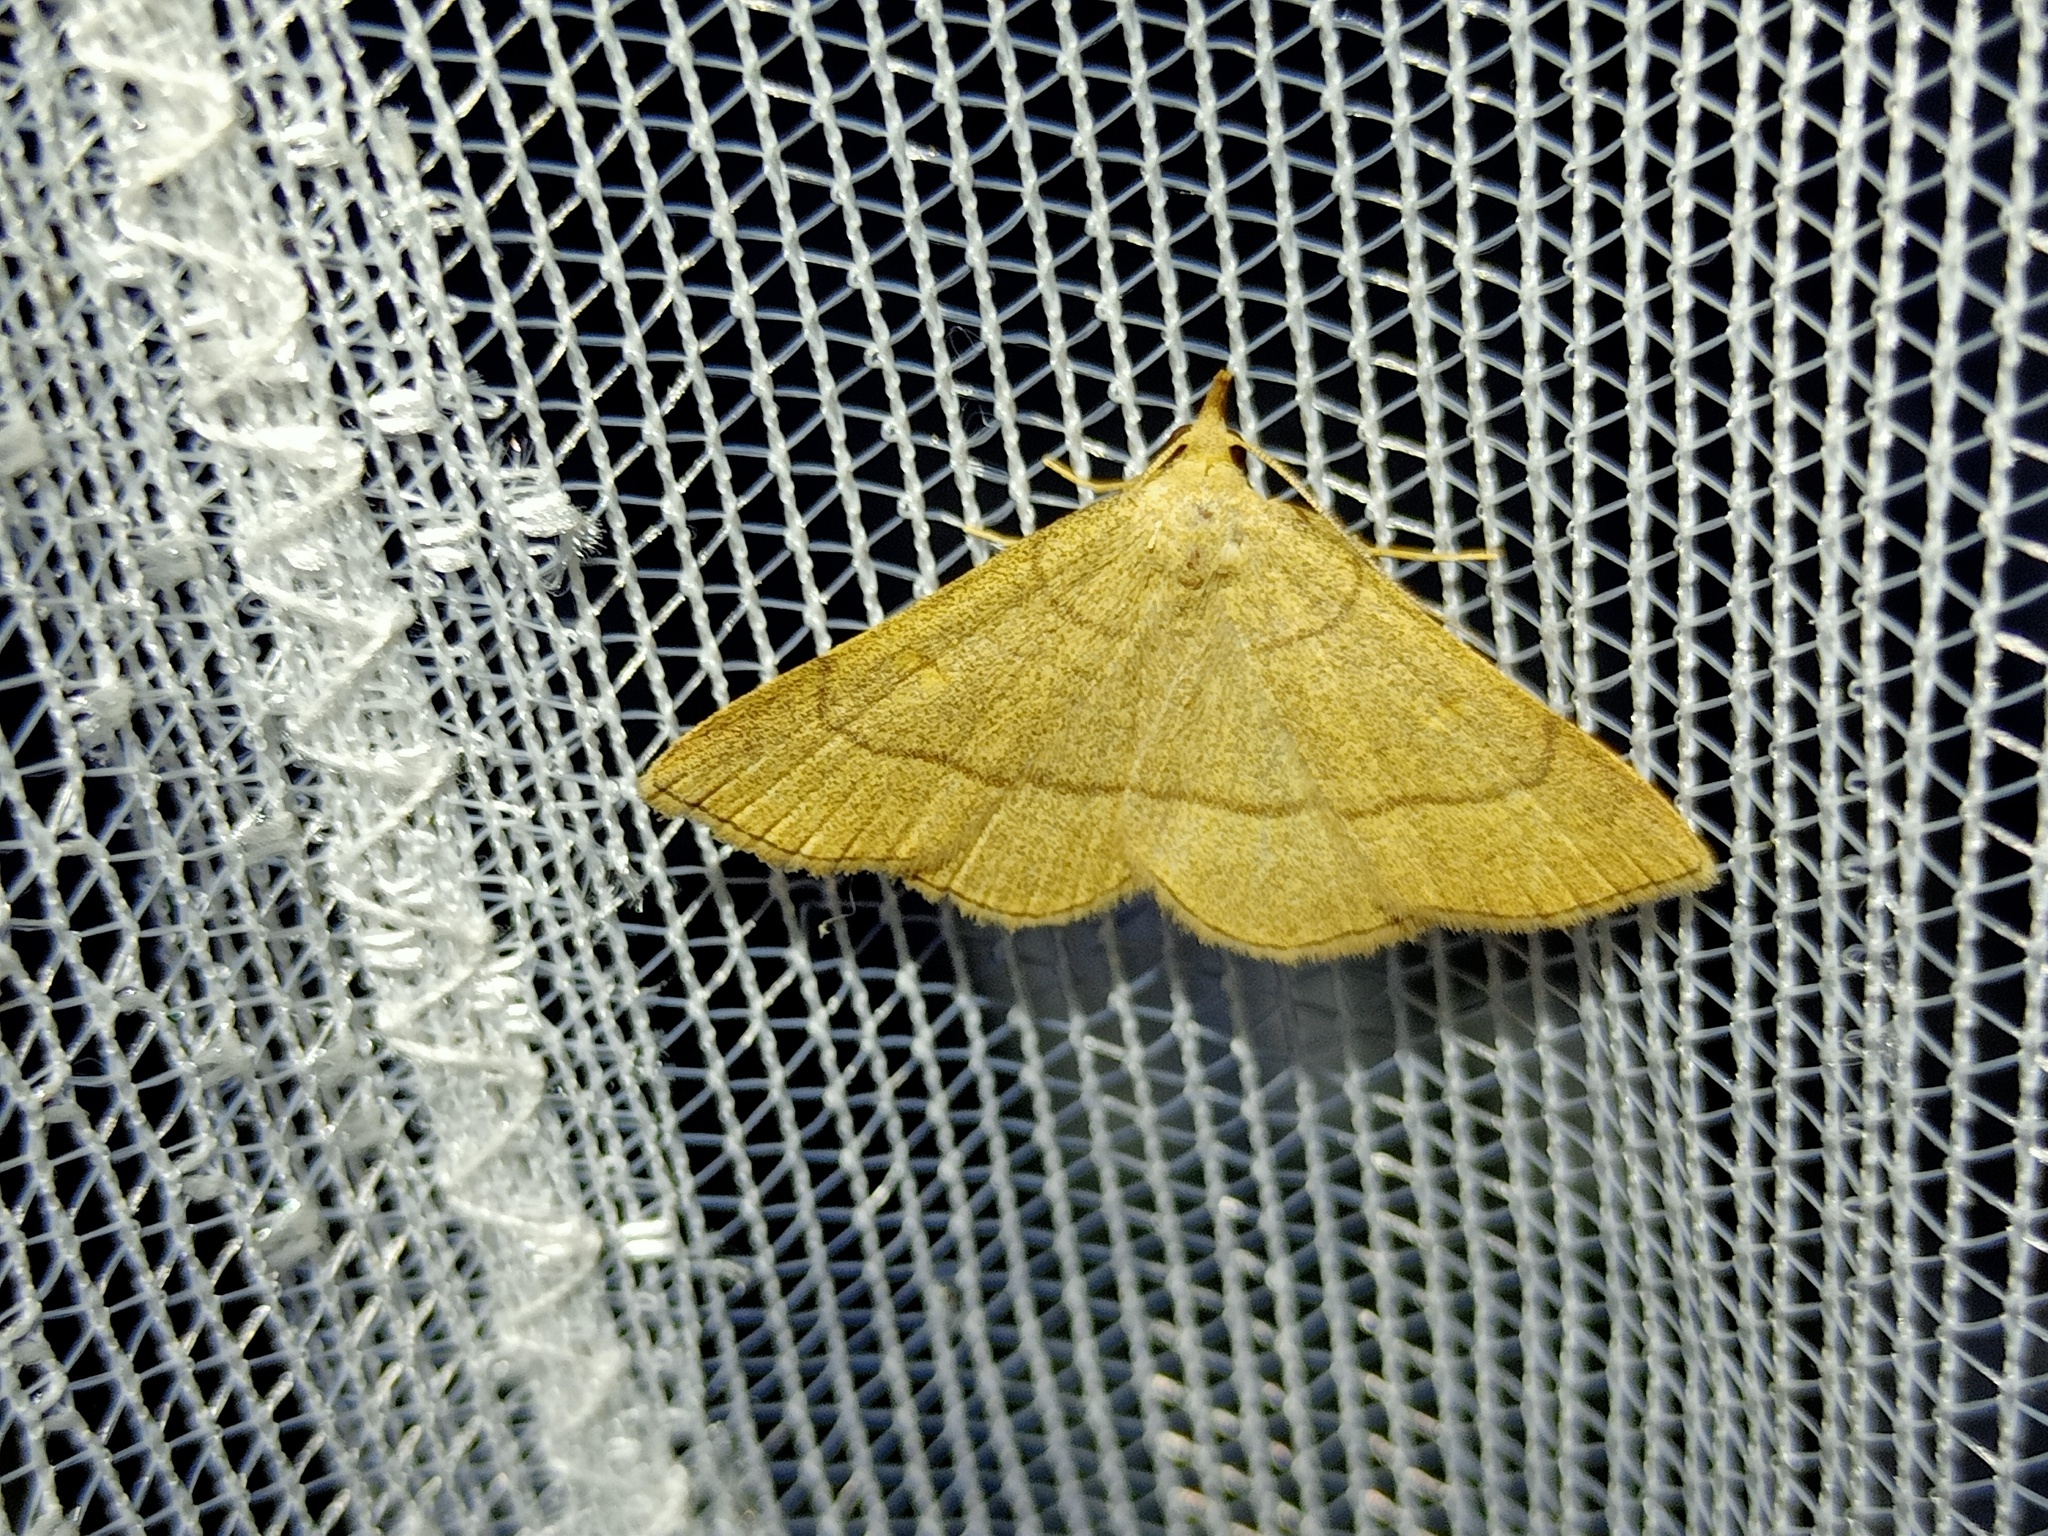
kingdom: Animalia
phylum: Arthropoda
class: Insecta
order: Lepidoptera
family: Erebidae
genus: Paracolax
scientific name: Paracolax tristalis
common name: Clay fan-foot
